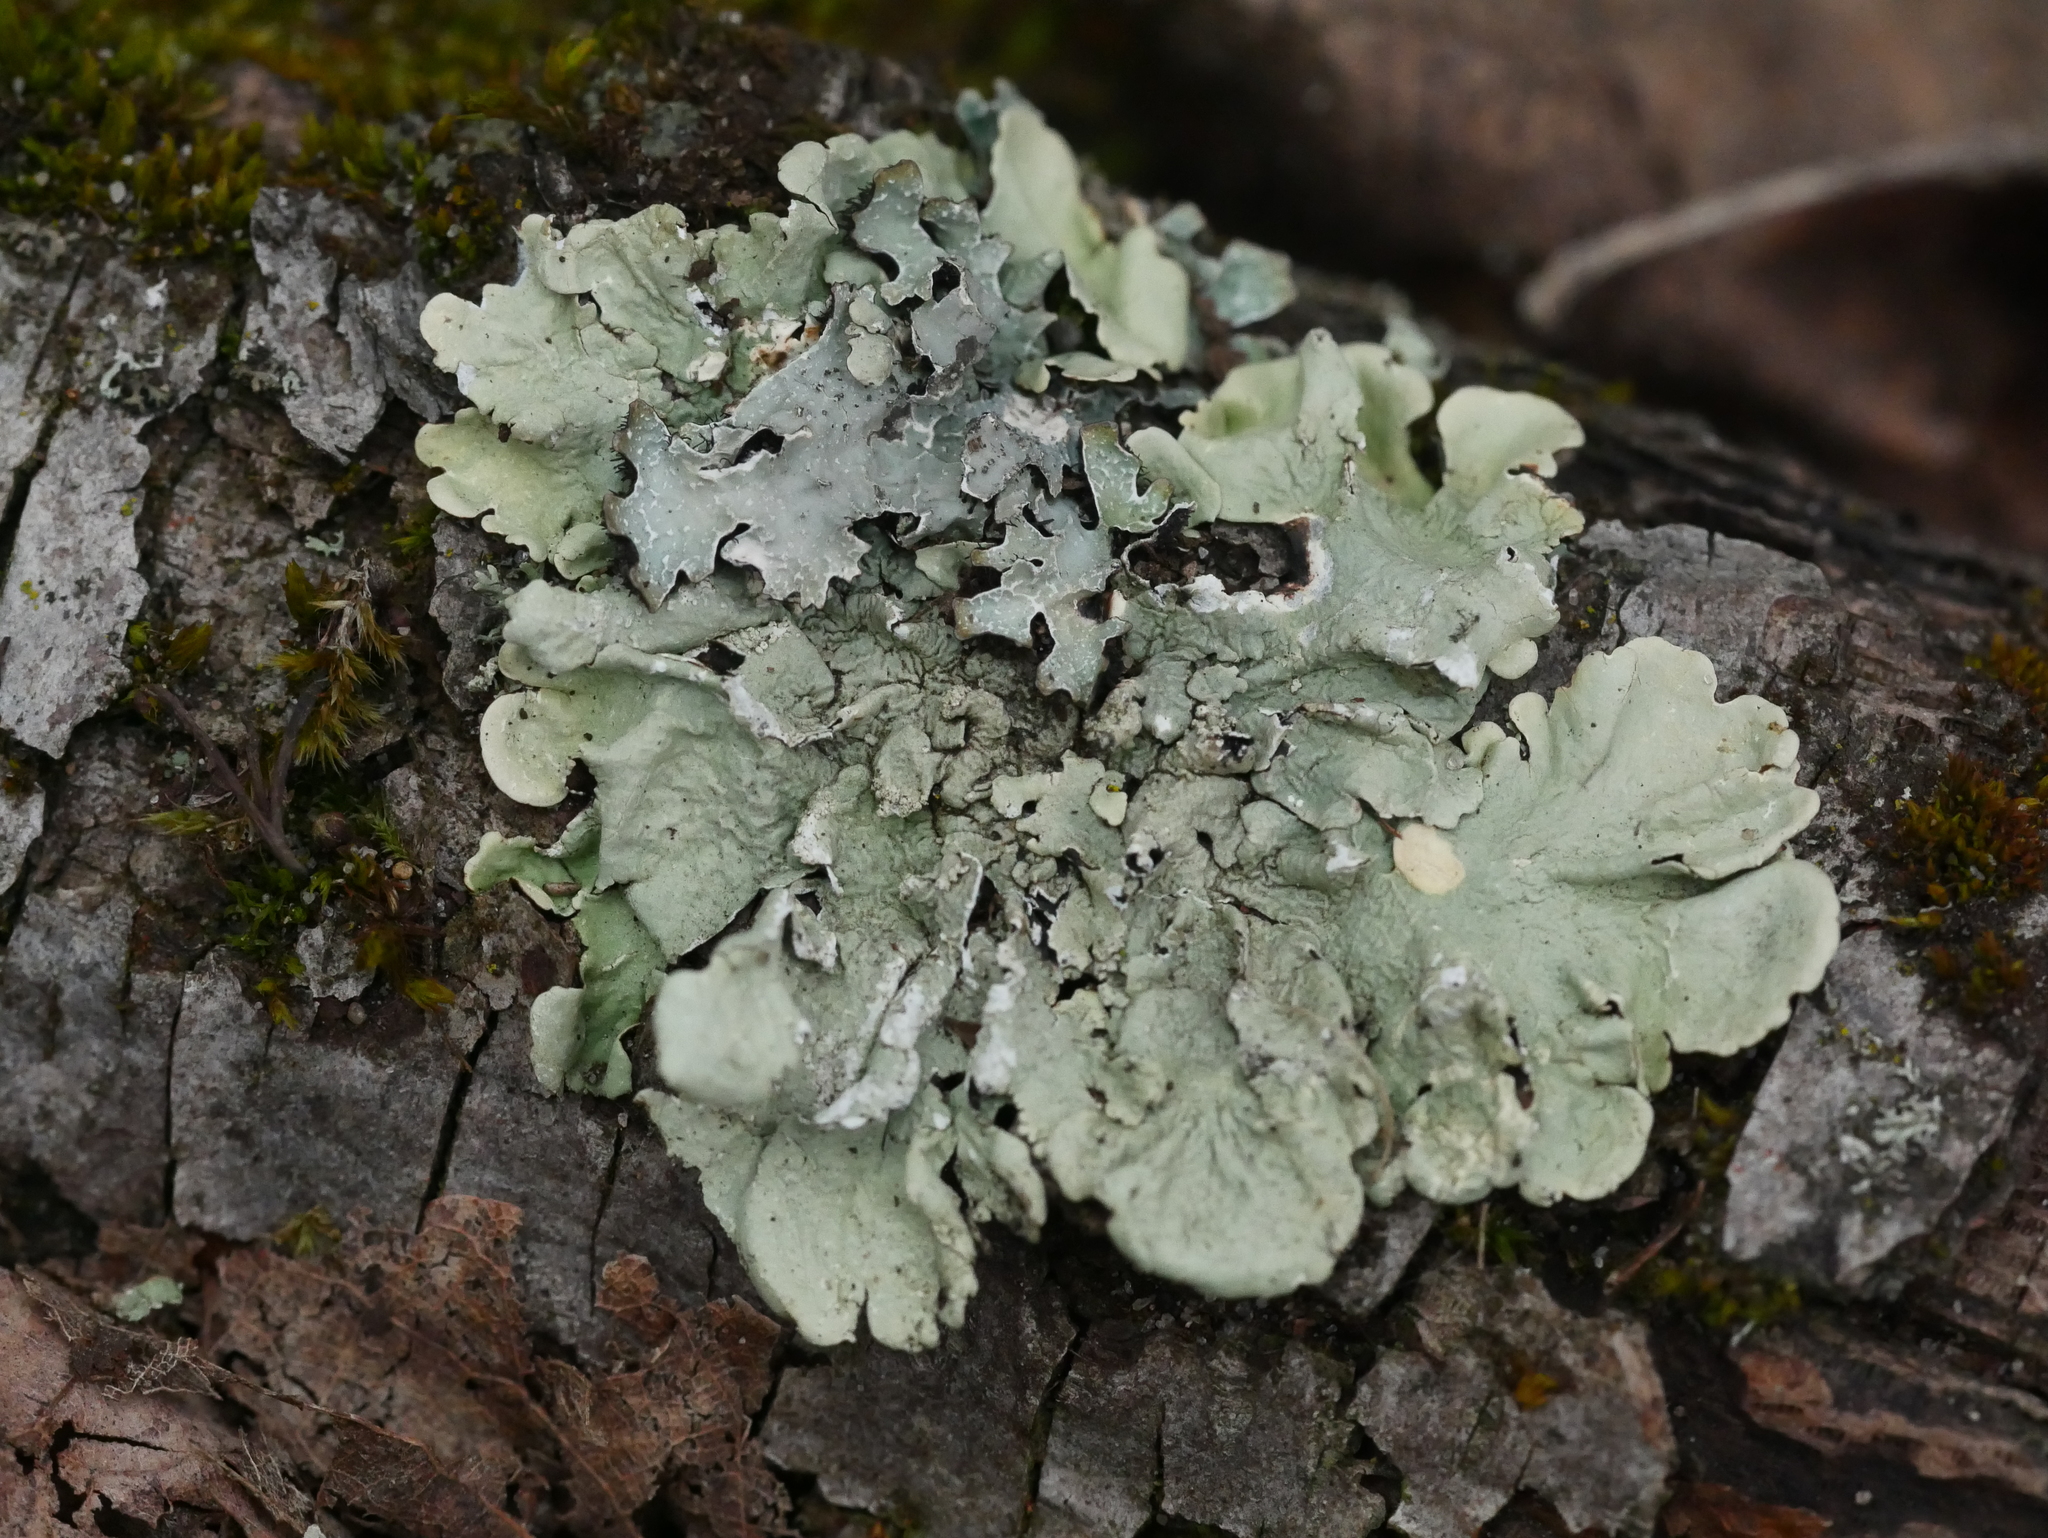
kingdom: Fungi
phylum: Ascomycota
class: Lecanoromycetes
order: Lecanorales
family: Parmeliaceae
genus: Flavoparmelia
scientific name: Flavoparmelia caperata
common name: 40-mile per hour lichen
